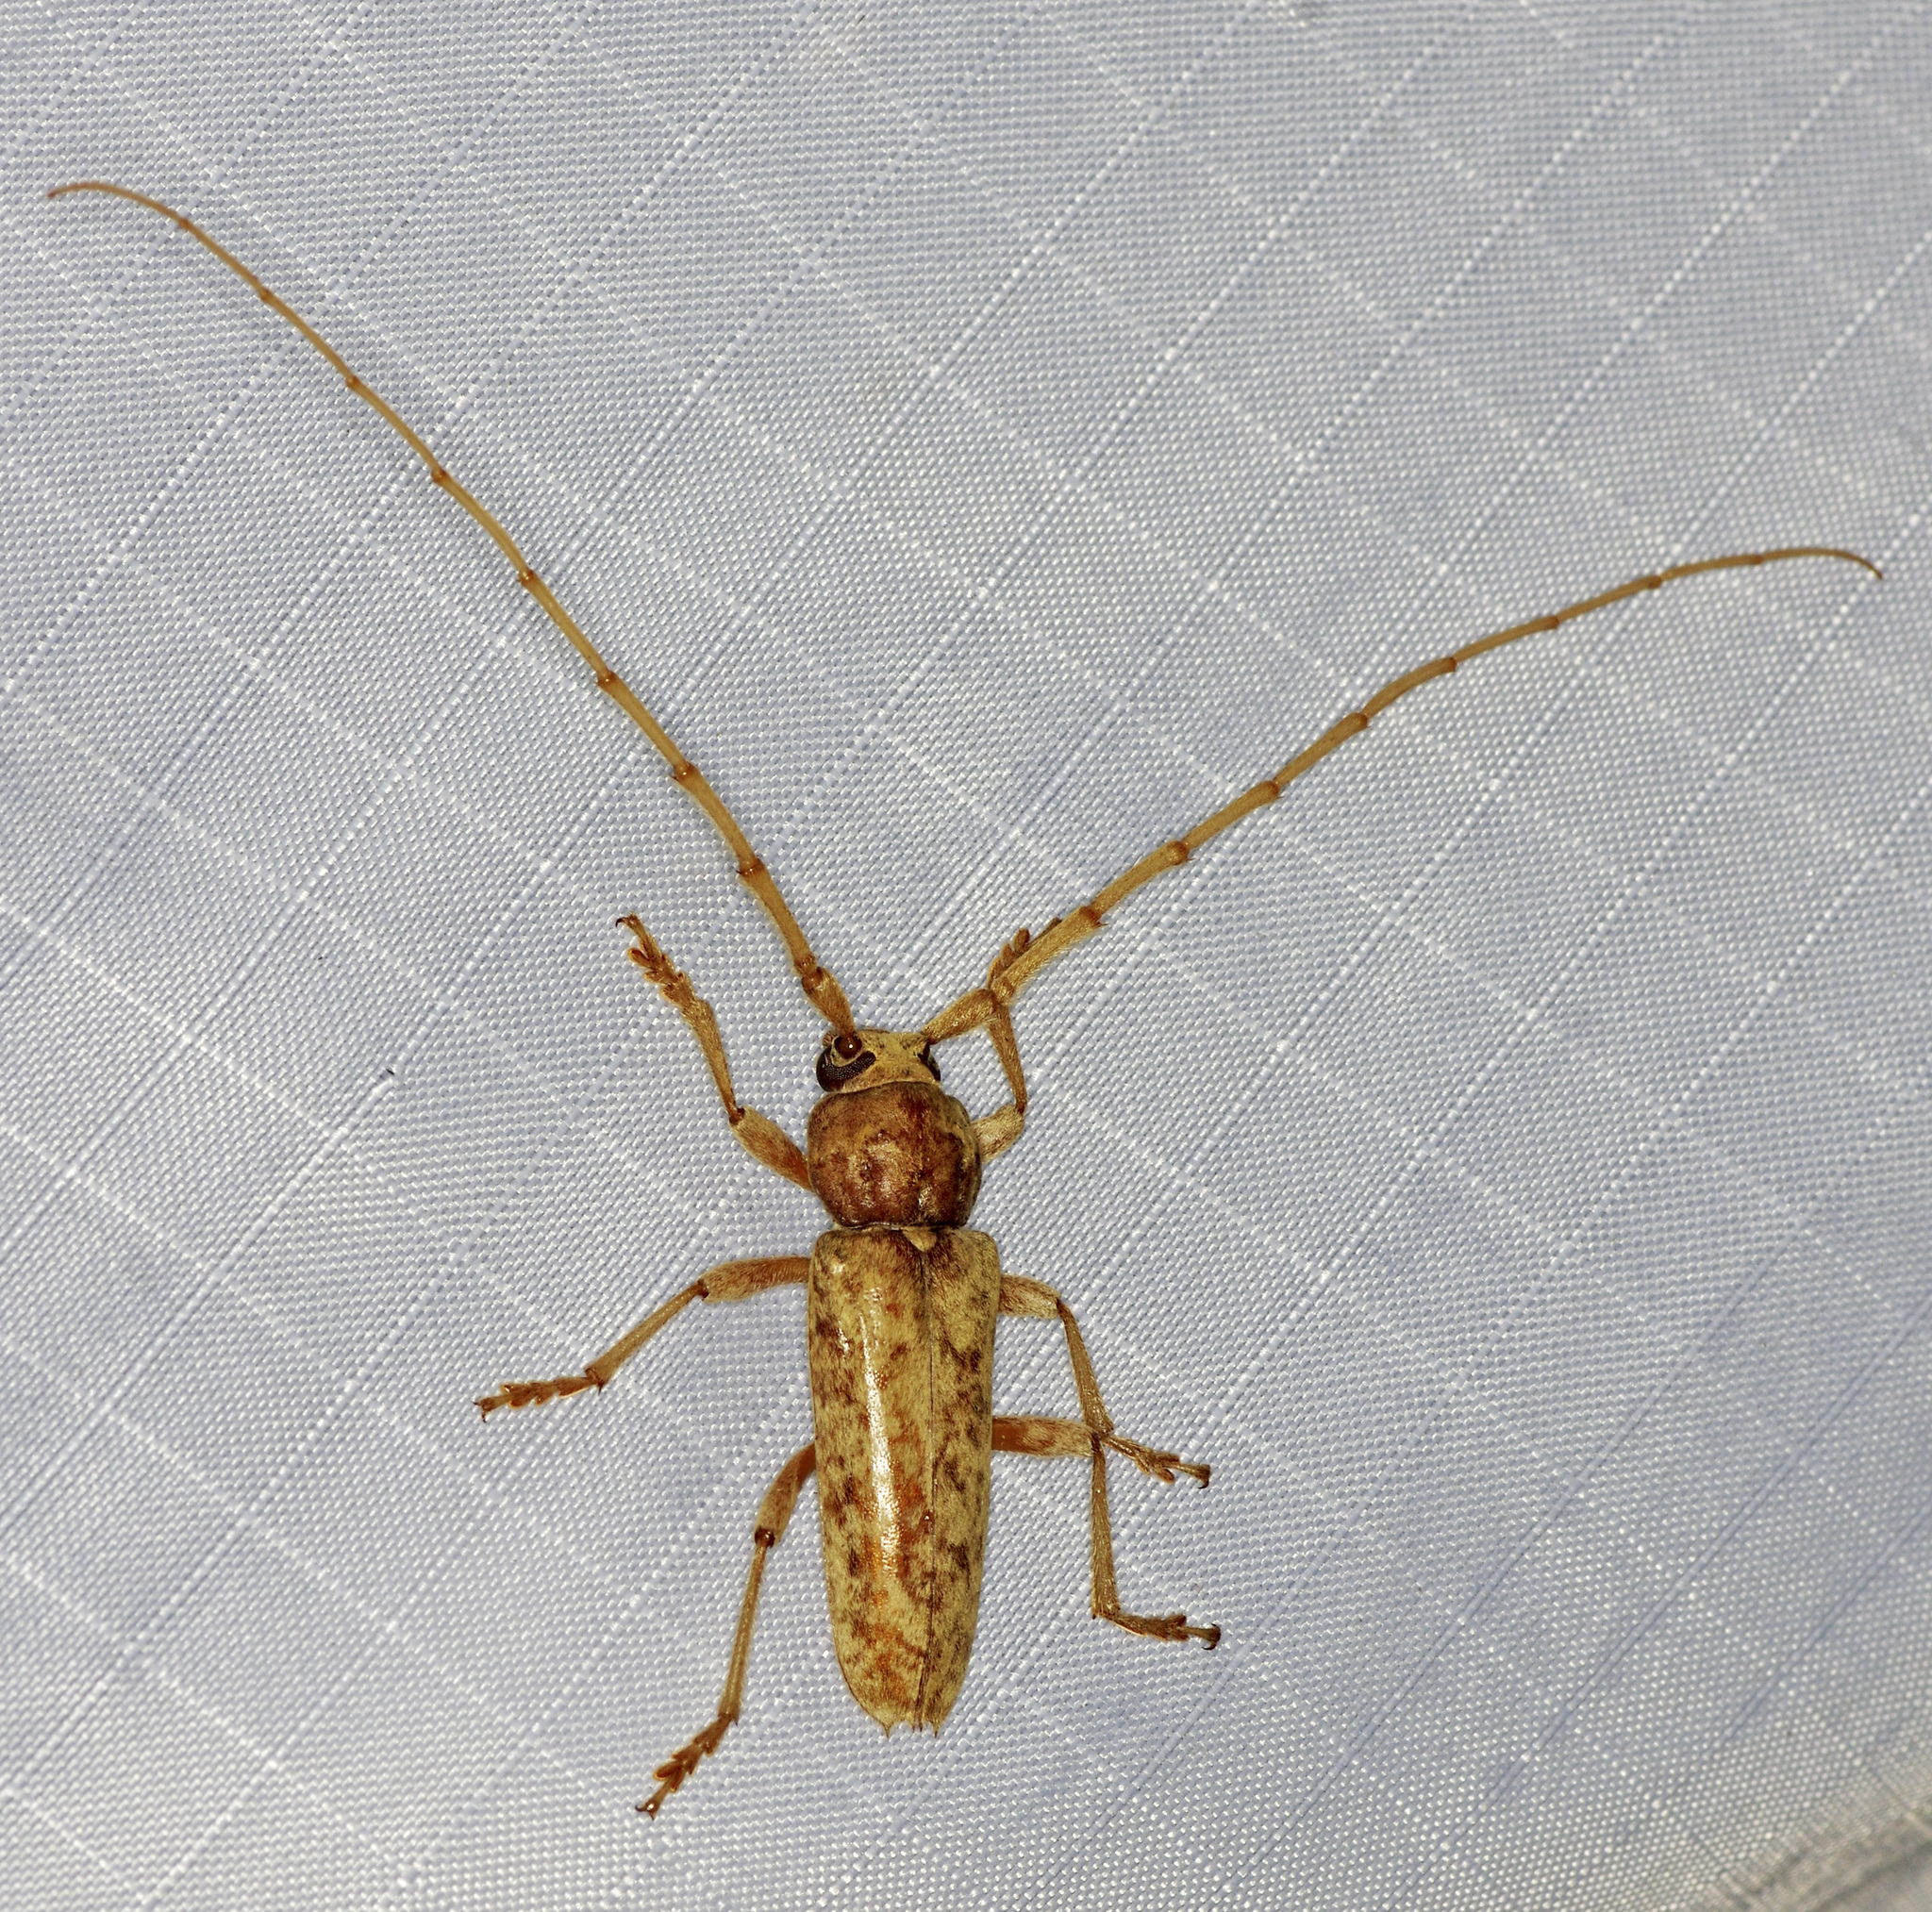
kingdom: Animalia
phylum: Arthropoda
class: Insecta
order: Coleoptera
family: Cerambycidae
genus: Enaphalodes
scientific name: Enaphalodes rufulus
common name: Red oak borer
